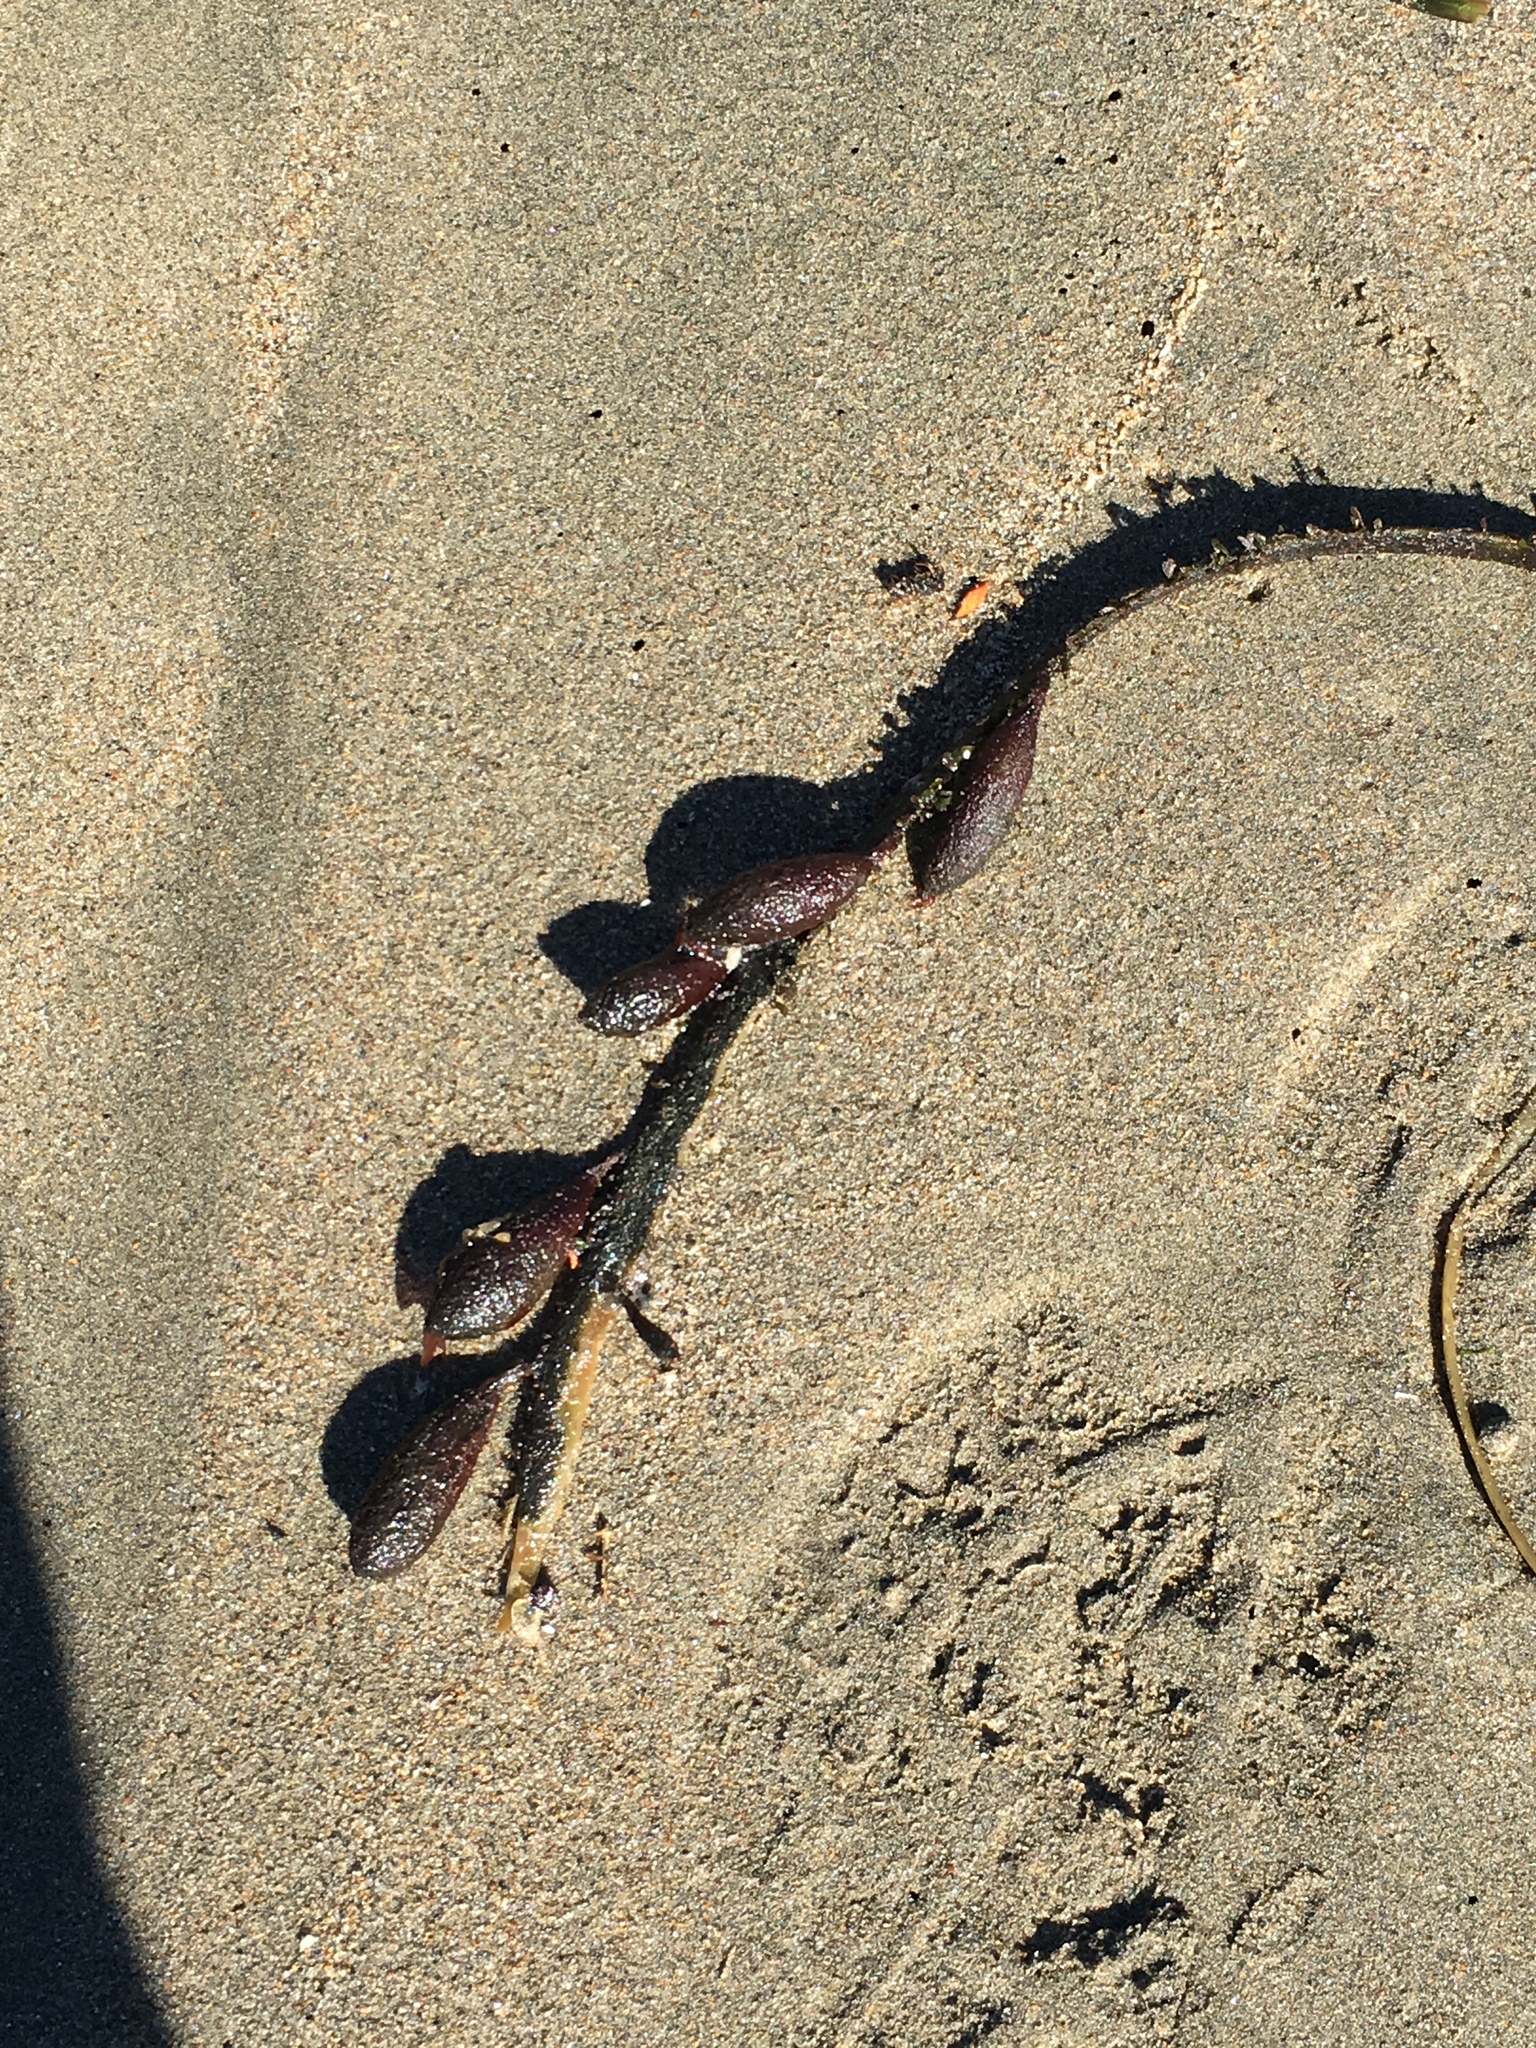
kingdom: Chromista
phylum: Ochrophyta
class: Phaeophyceae
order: Laminariales
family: Lessoniaceae
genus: Egregia
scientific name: Egregia menziesii
